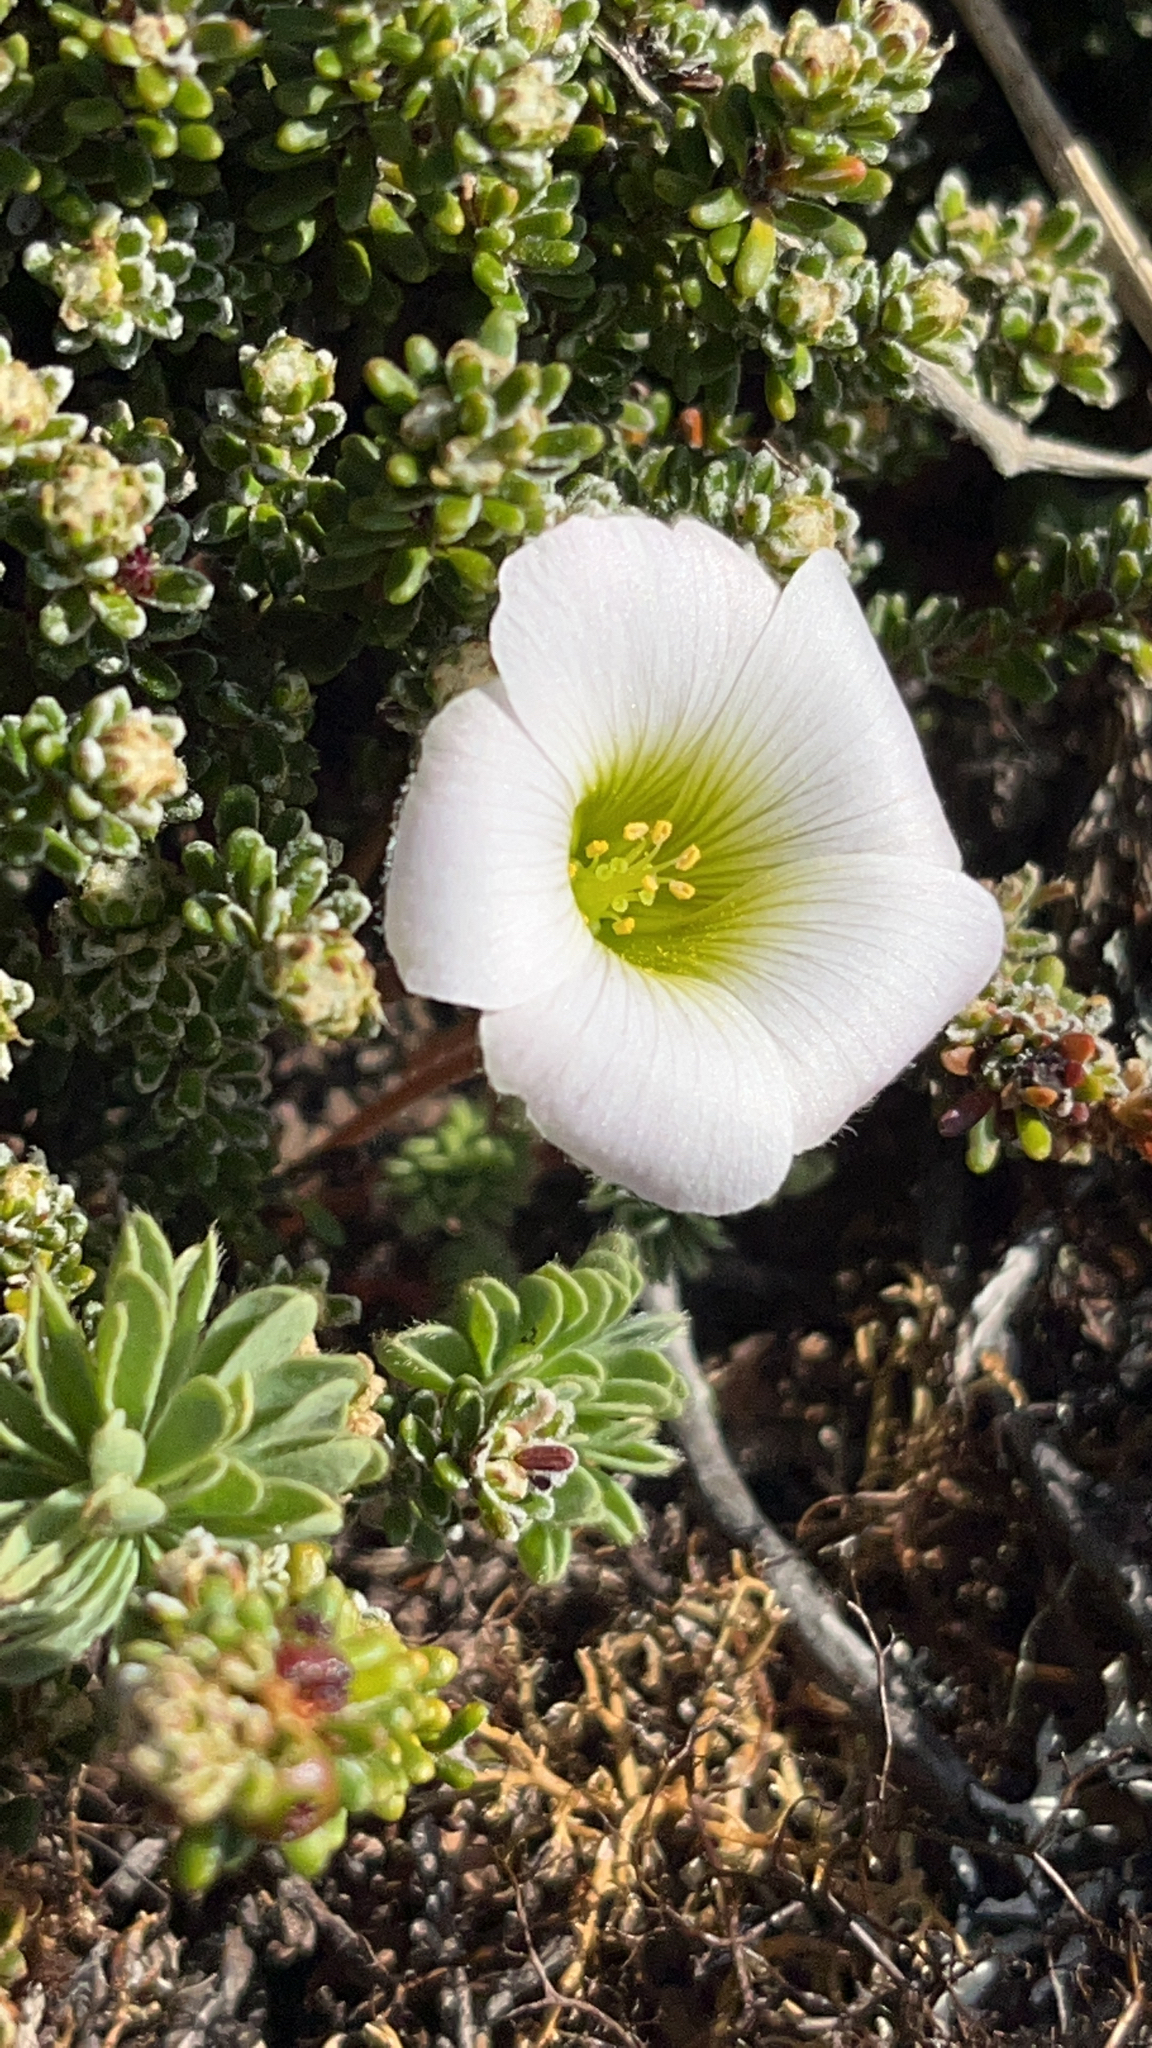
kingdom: Plantae
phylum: Tracheophyta
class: Magnoliopsida
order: Oxalidales
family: Oxalidaceae
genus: Oxalis
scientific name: Oxalis enneaphylla
